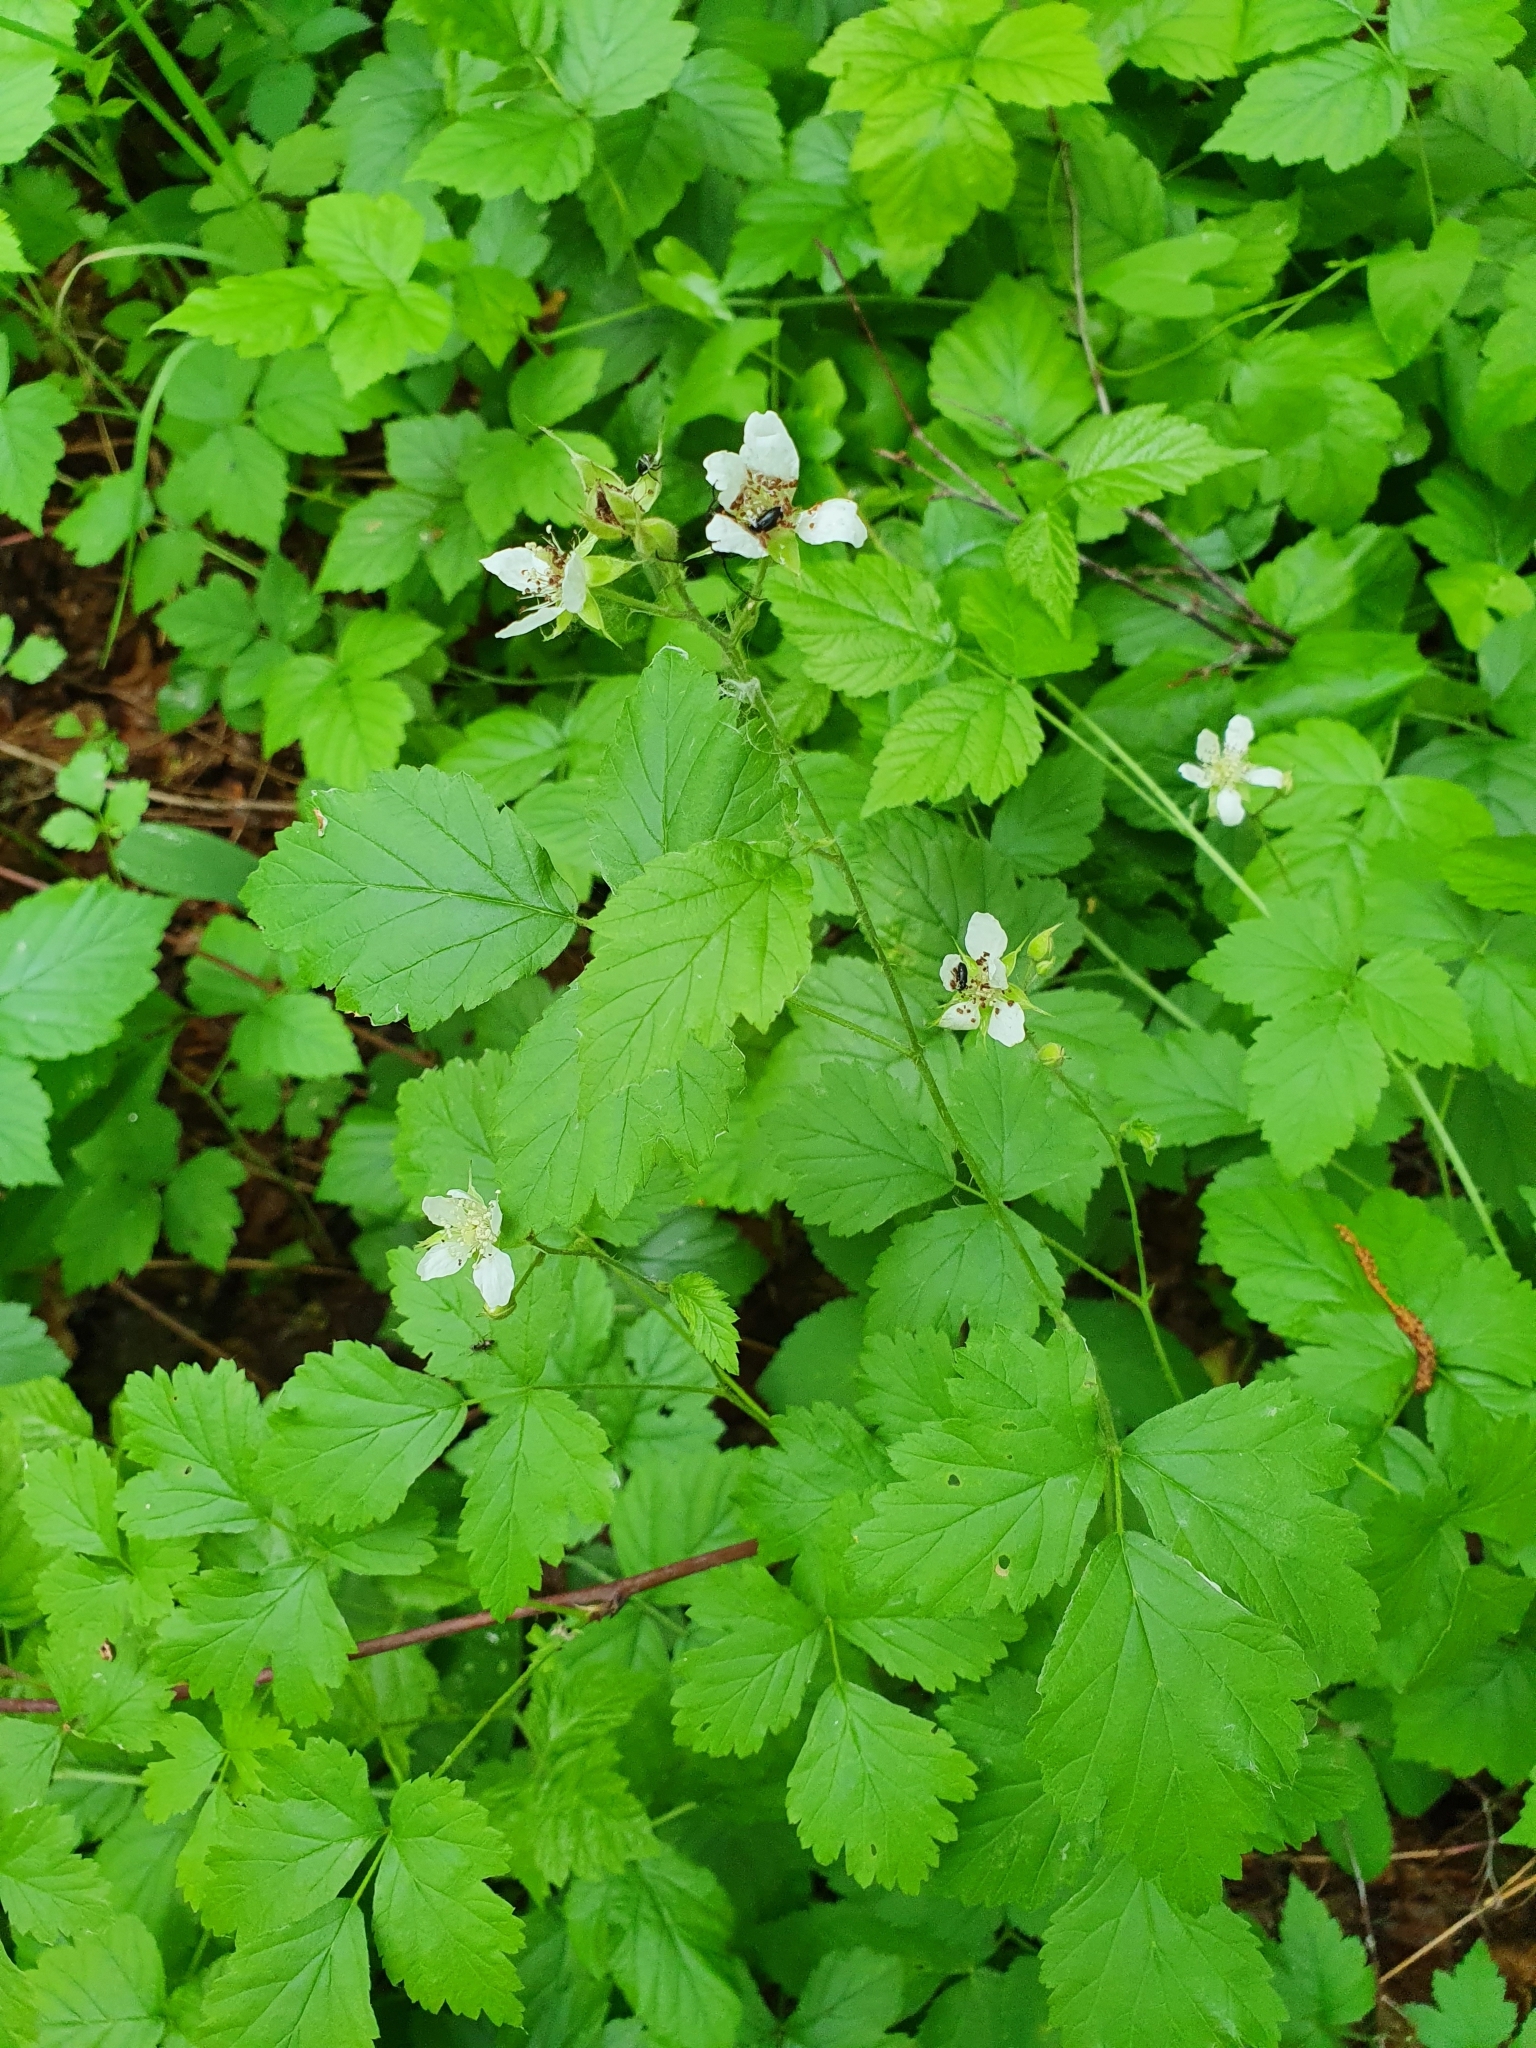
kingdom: Plantae
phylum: Tracheophyta
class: Magnoliopsida
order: Rosales
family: Rosaceae
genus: Rubus
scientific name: Rubus caesius
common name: Dewberry
